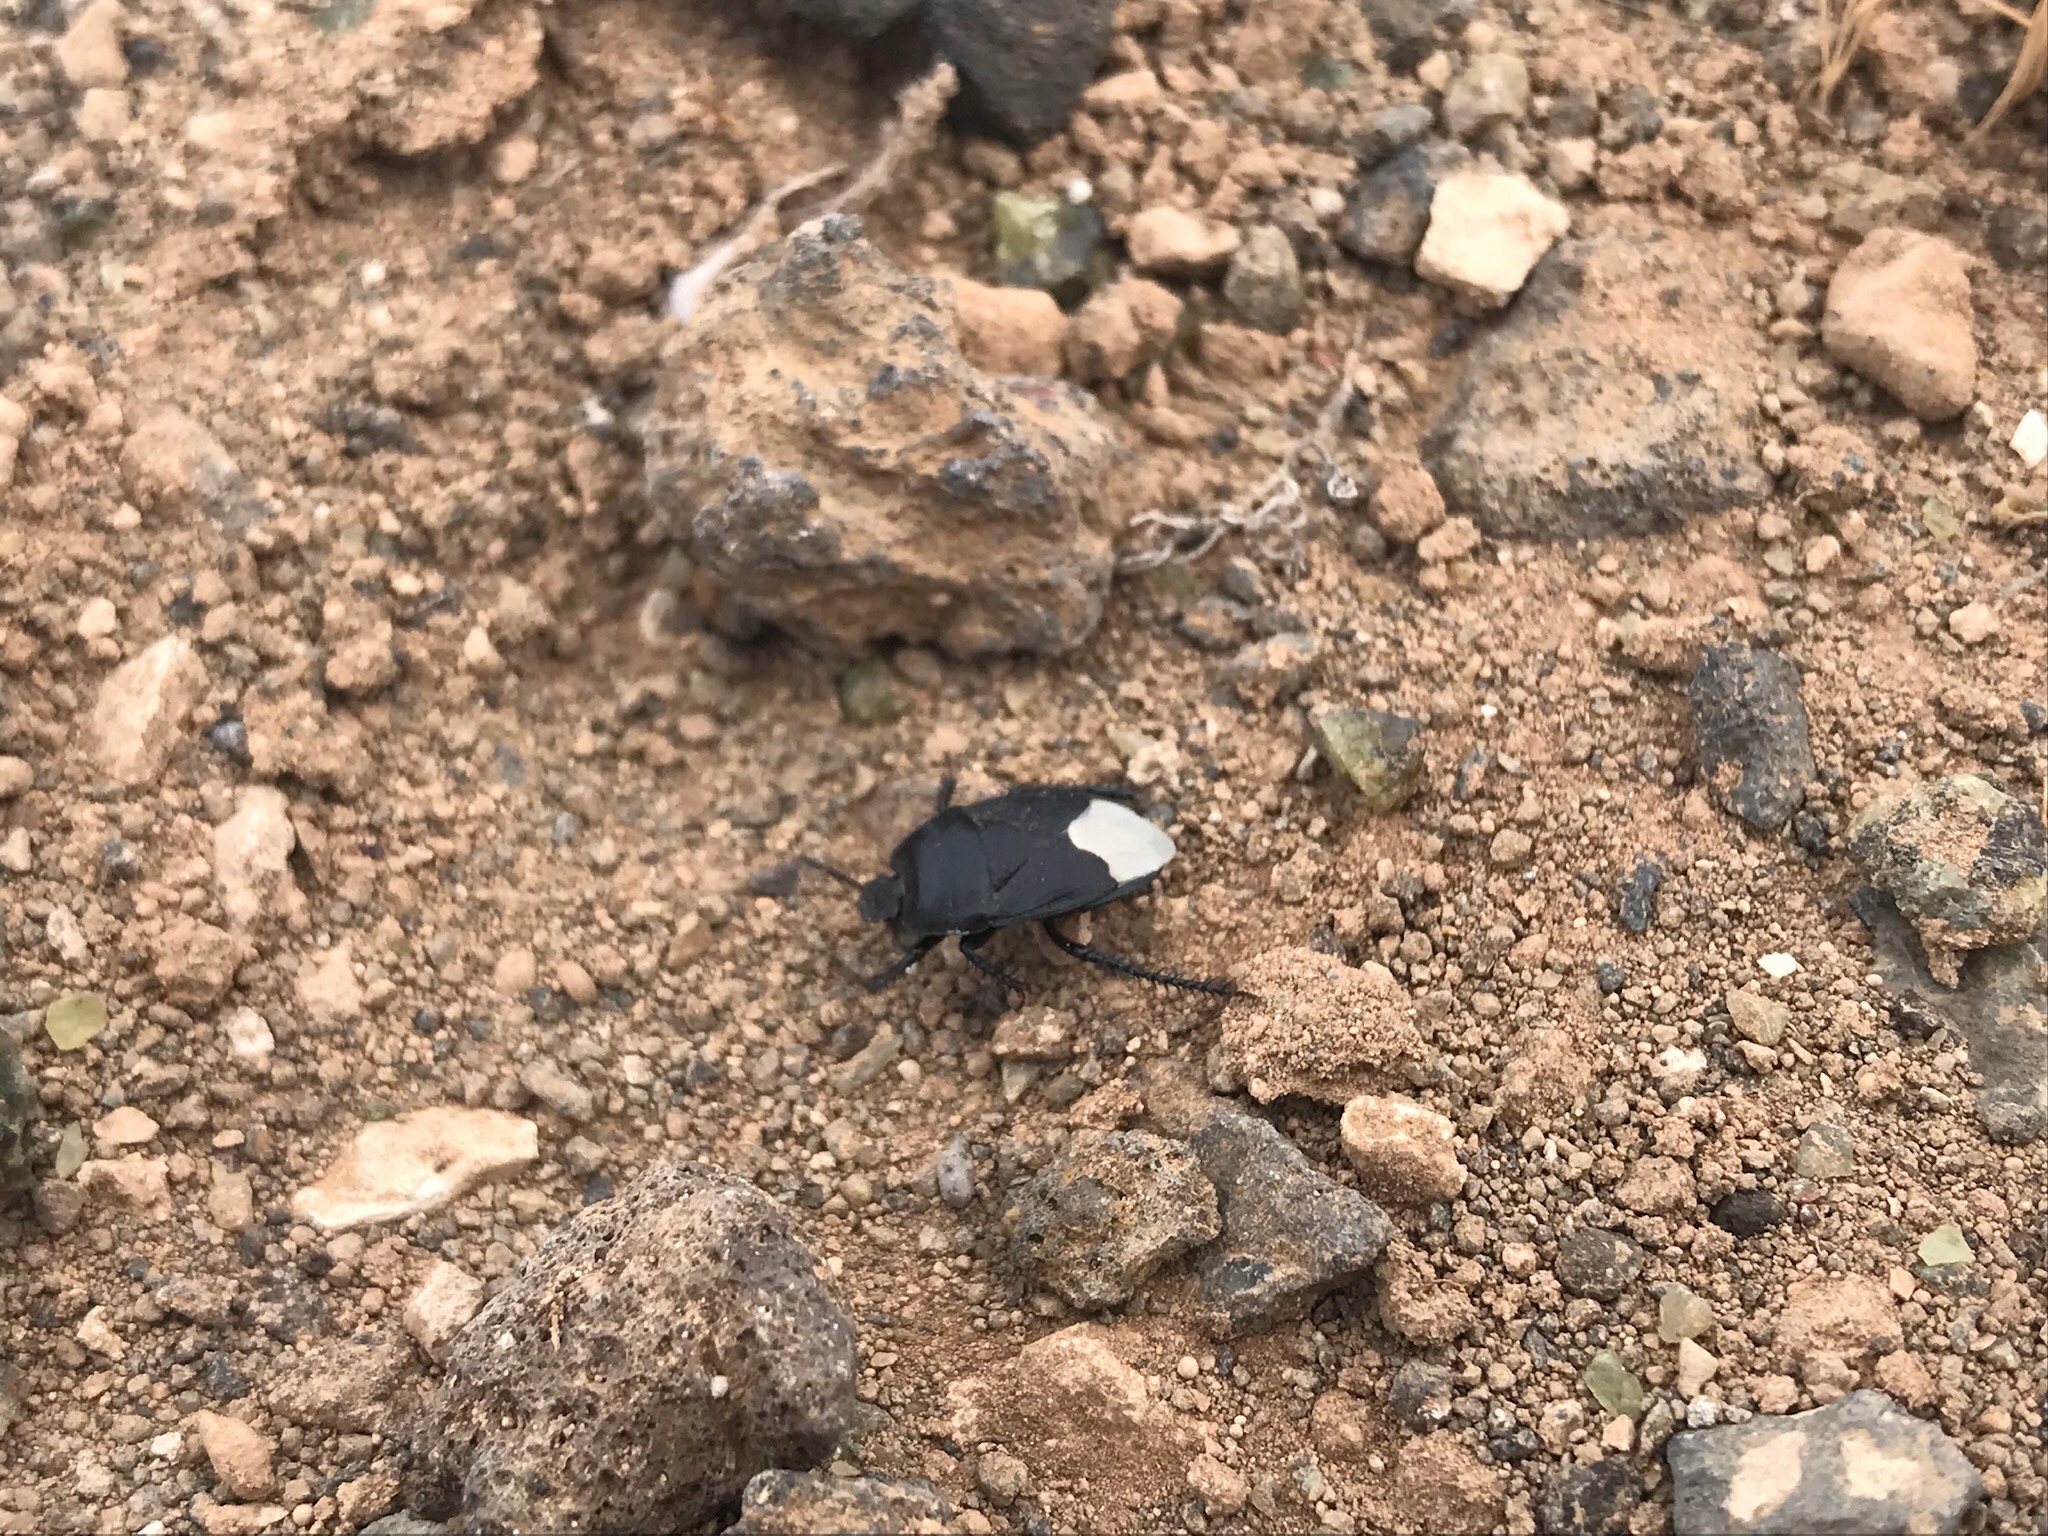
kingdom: Animalia
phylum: Arthropoda
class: Insecta
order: Hemiptera
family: Cydnidae
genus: Cydnus
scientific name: Cydnus aterrimus
